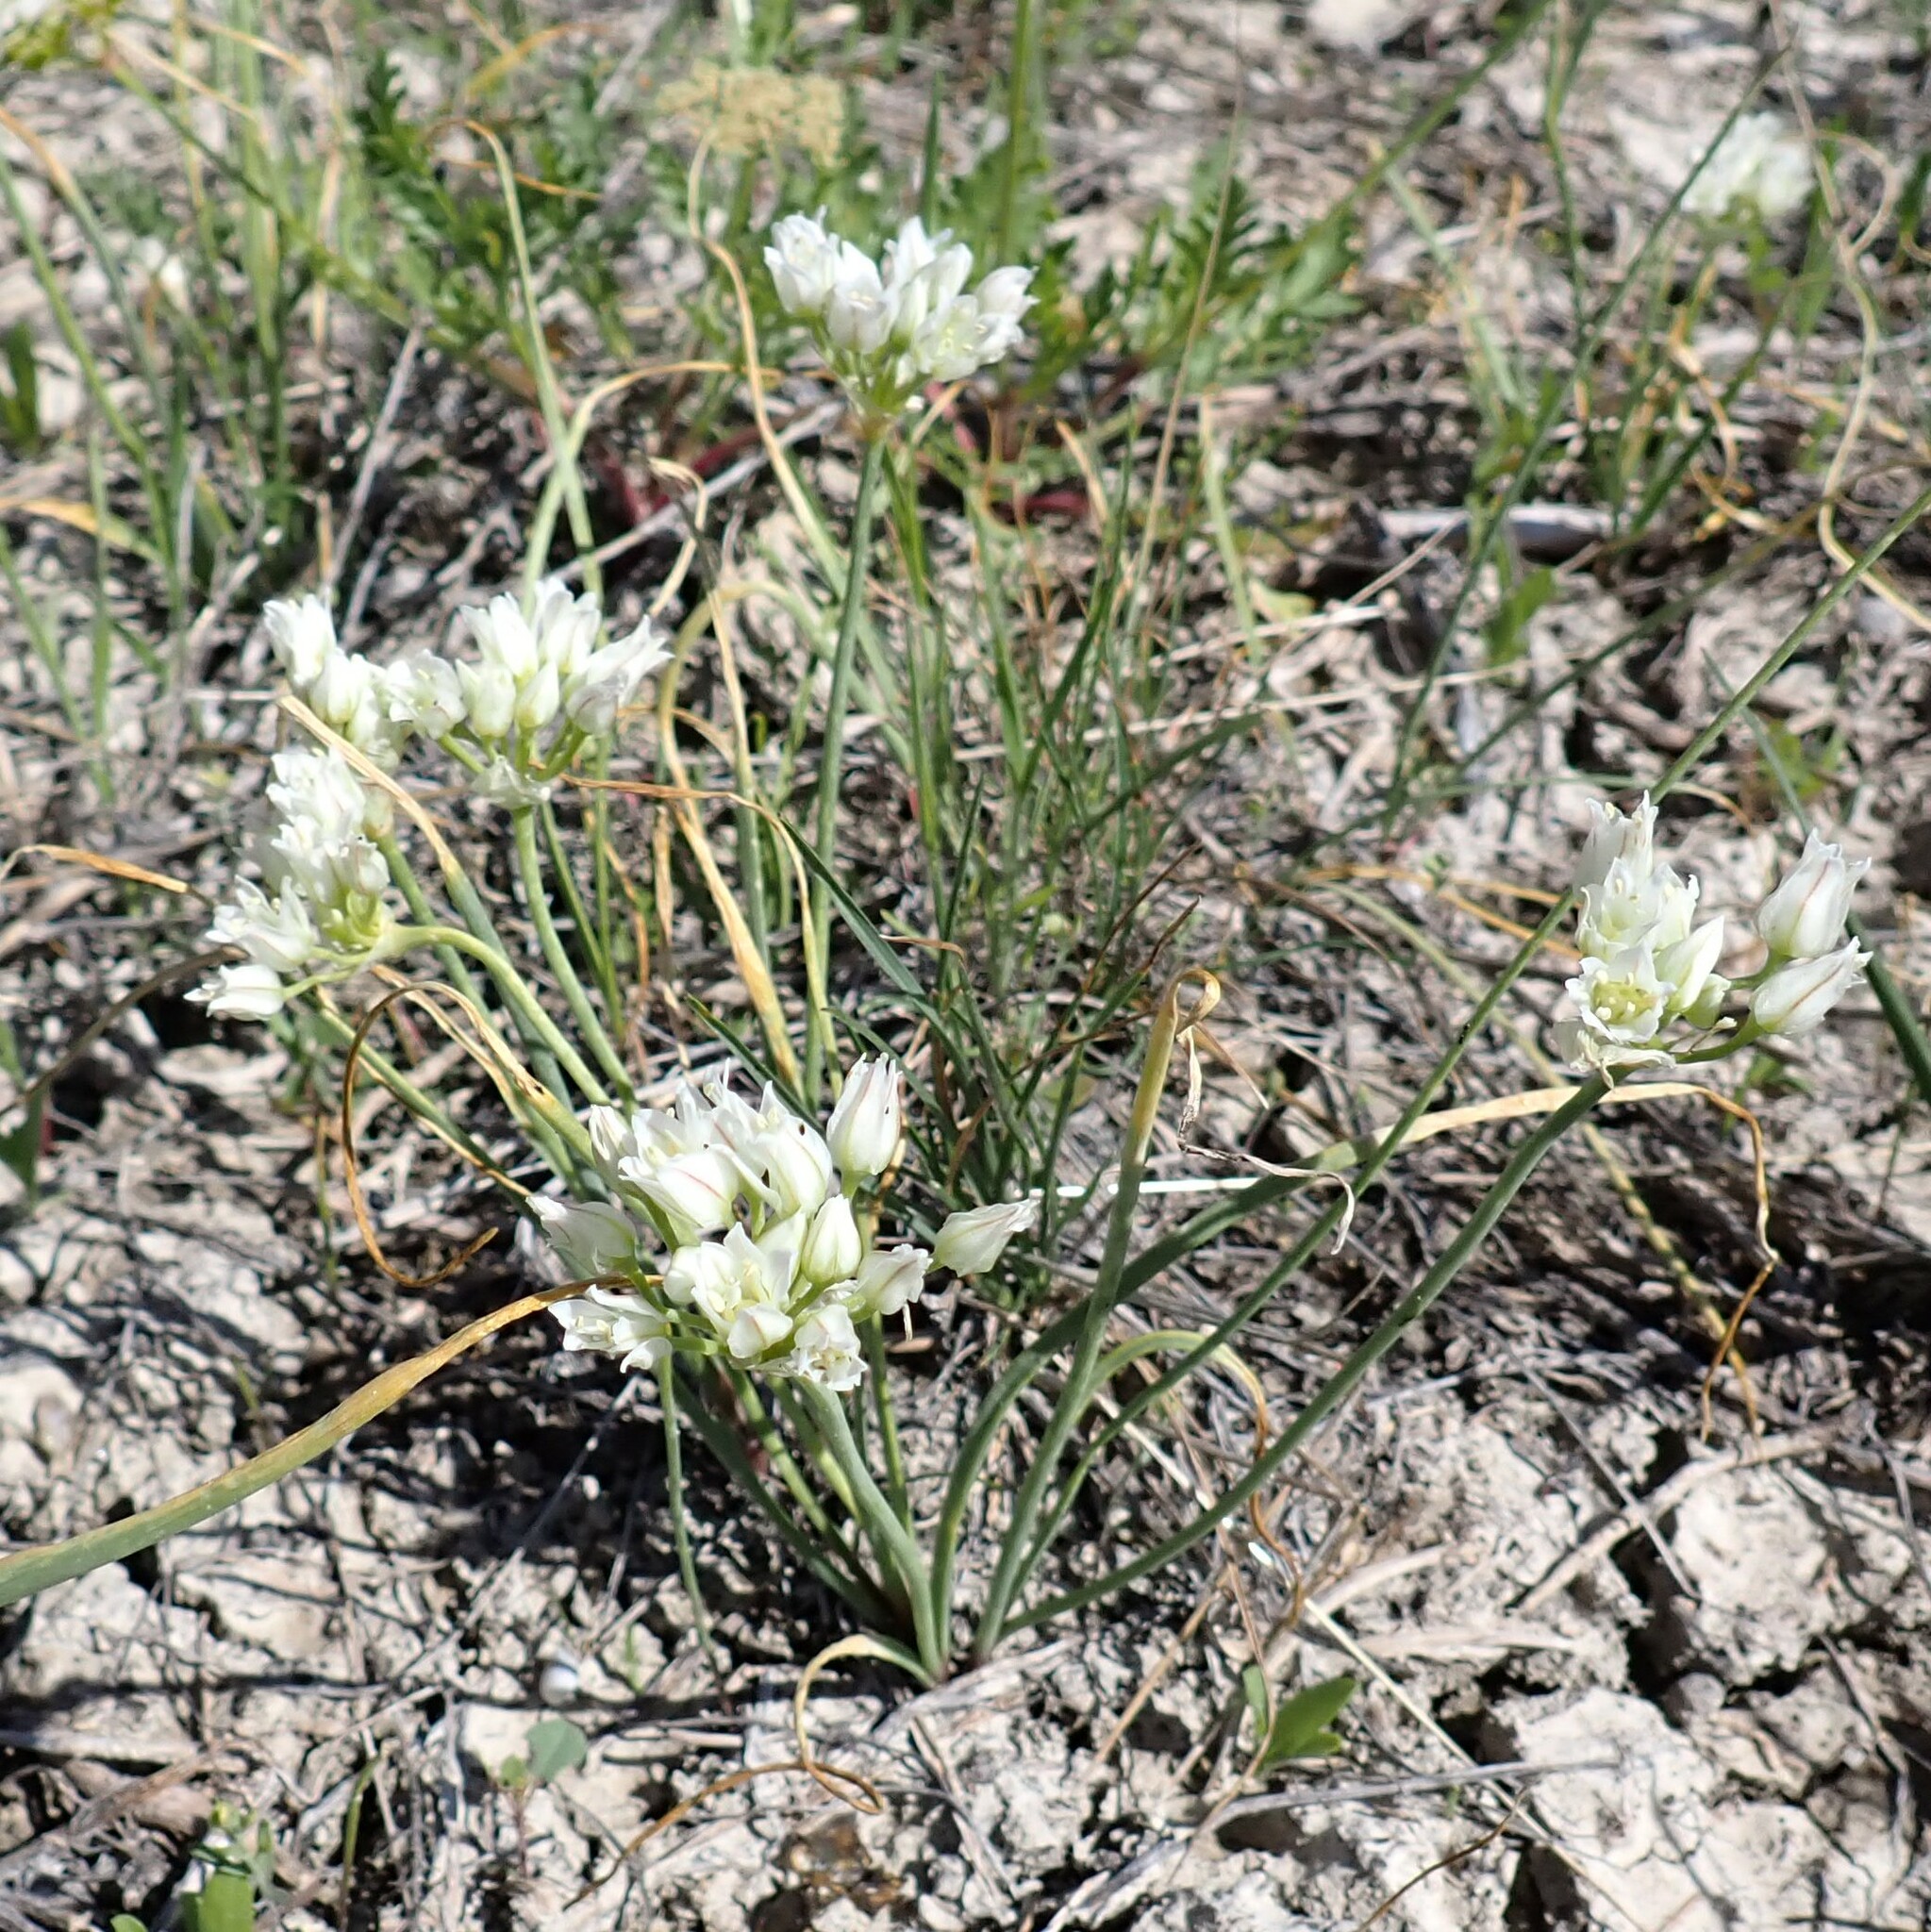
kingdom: Plantae
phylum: Tracheophyta
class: Liliopsida
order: Asparagales
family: Amaryllidaceae
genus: Allium
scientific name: Allium textile
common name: Prairie onion
